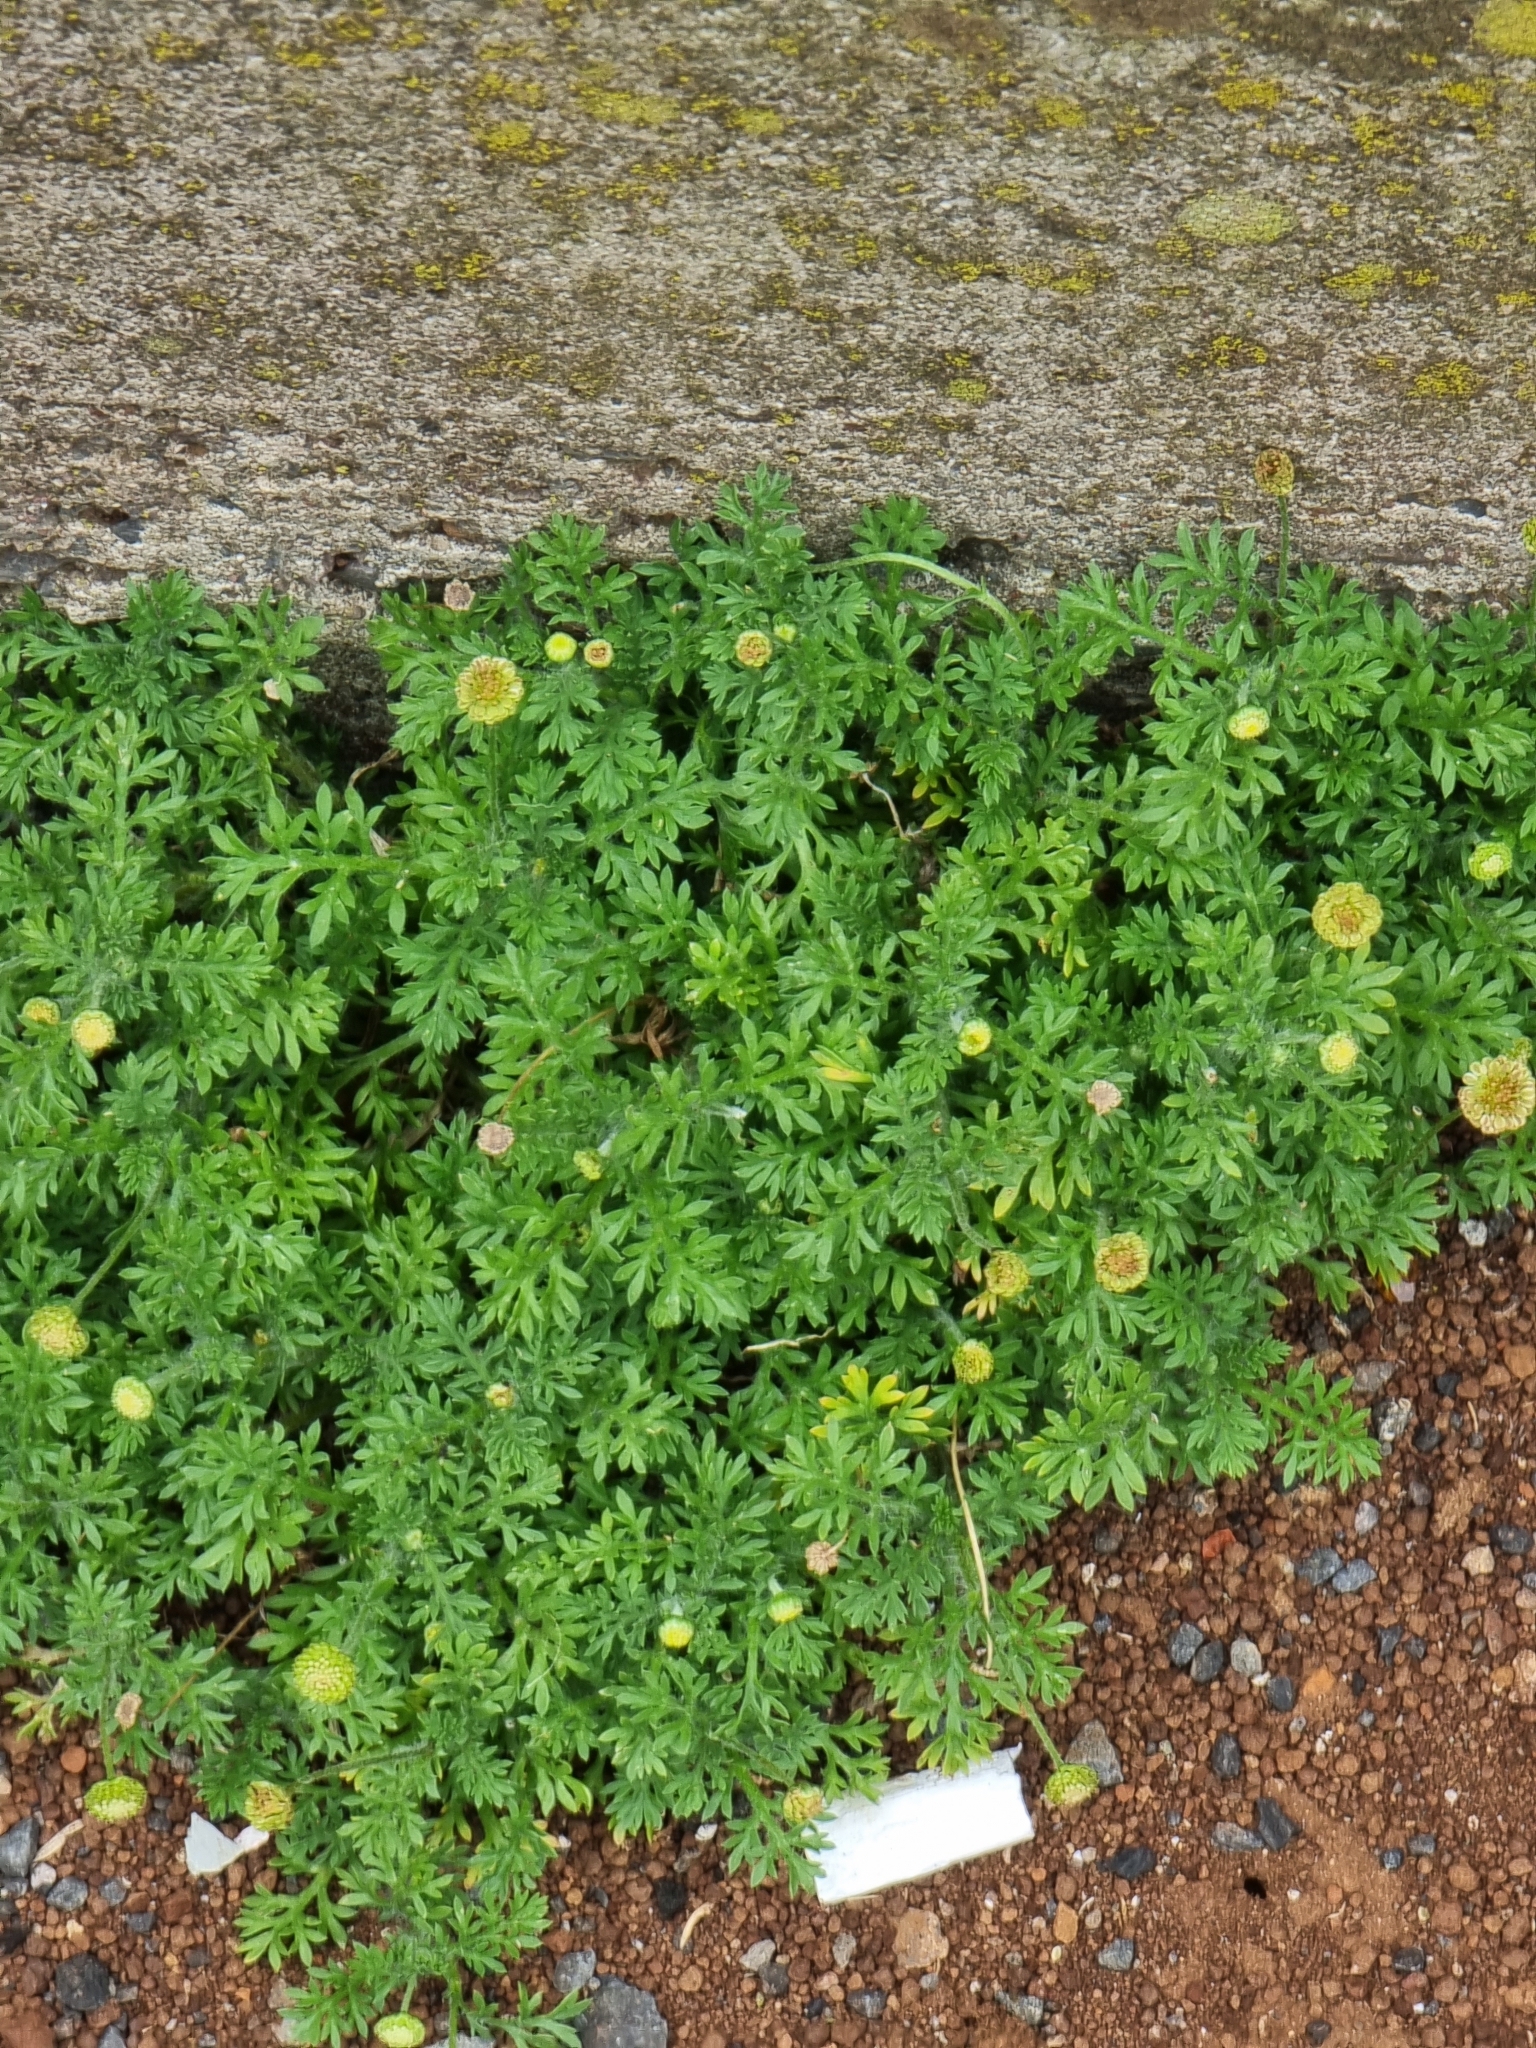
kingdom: Plantae
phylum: Tracheophyta
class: Magnoliopsida
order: Asterales
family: Asteraceae
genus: Cotula
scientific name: Cotula australis
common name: Australian waterbuttons
